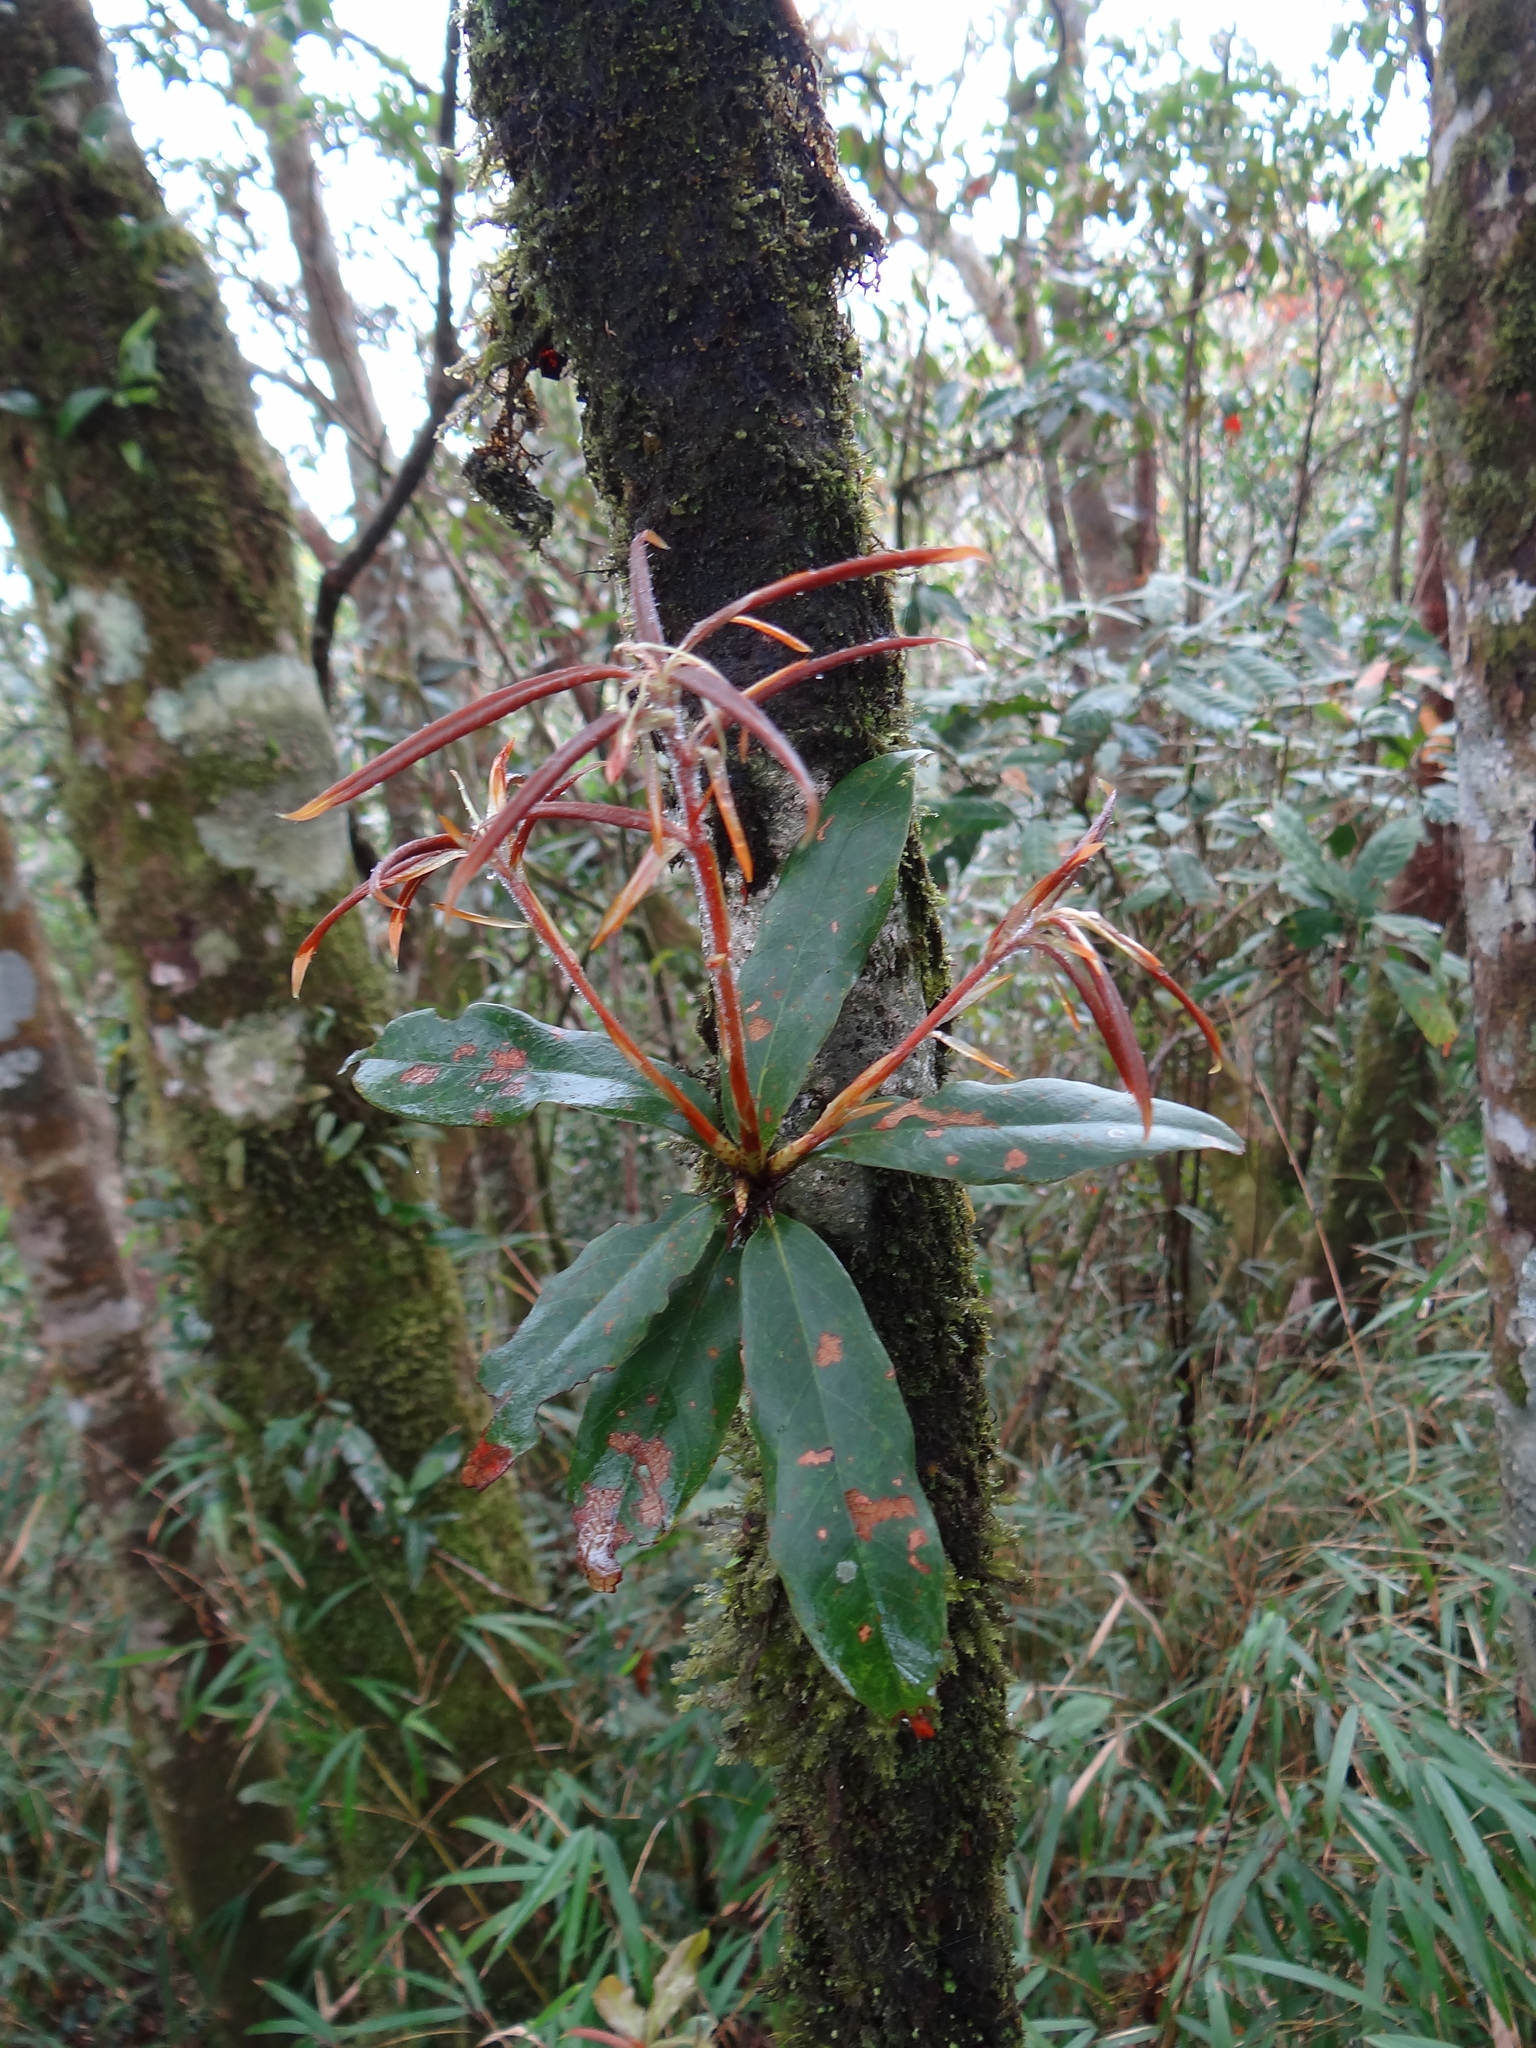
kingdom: Plantae
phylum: Tracheophyta
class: Magnoliopsida
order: Fagales
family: Fagaceae
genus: Quercus
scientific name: Quercus sessilifolia
